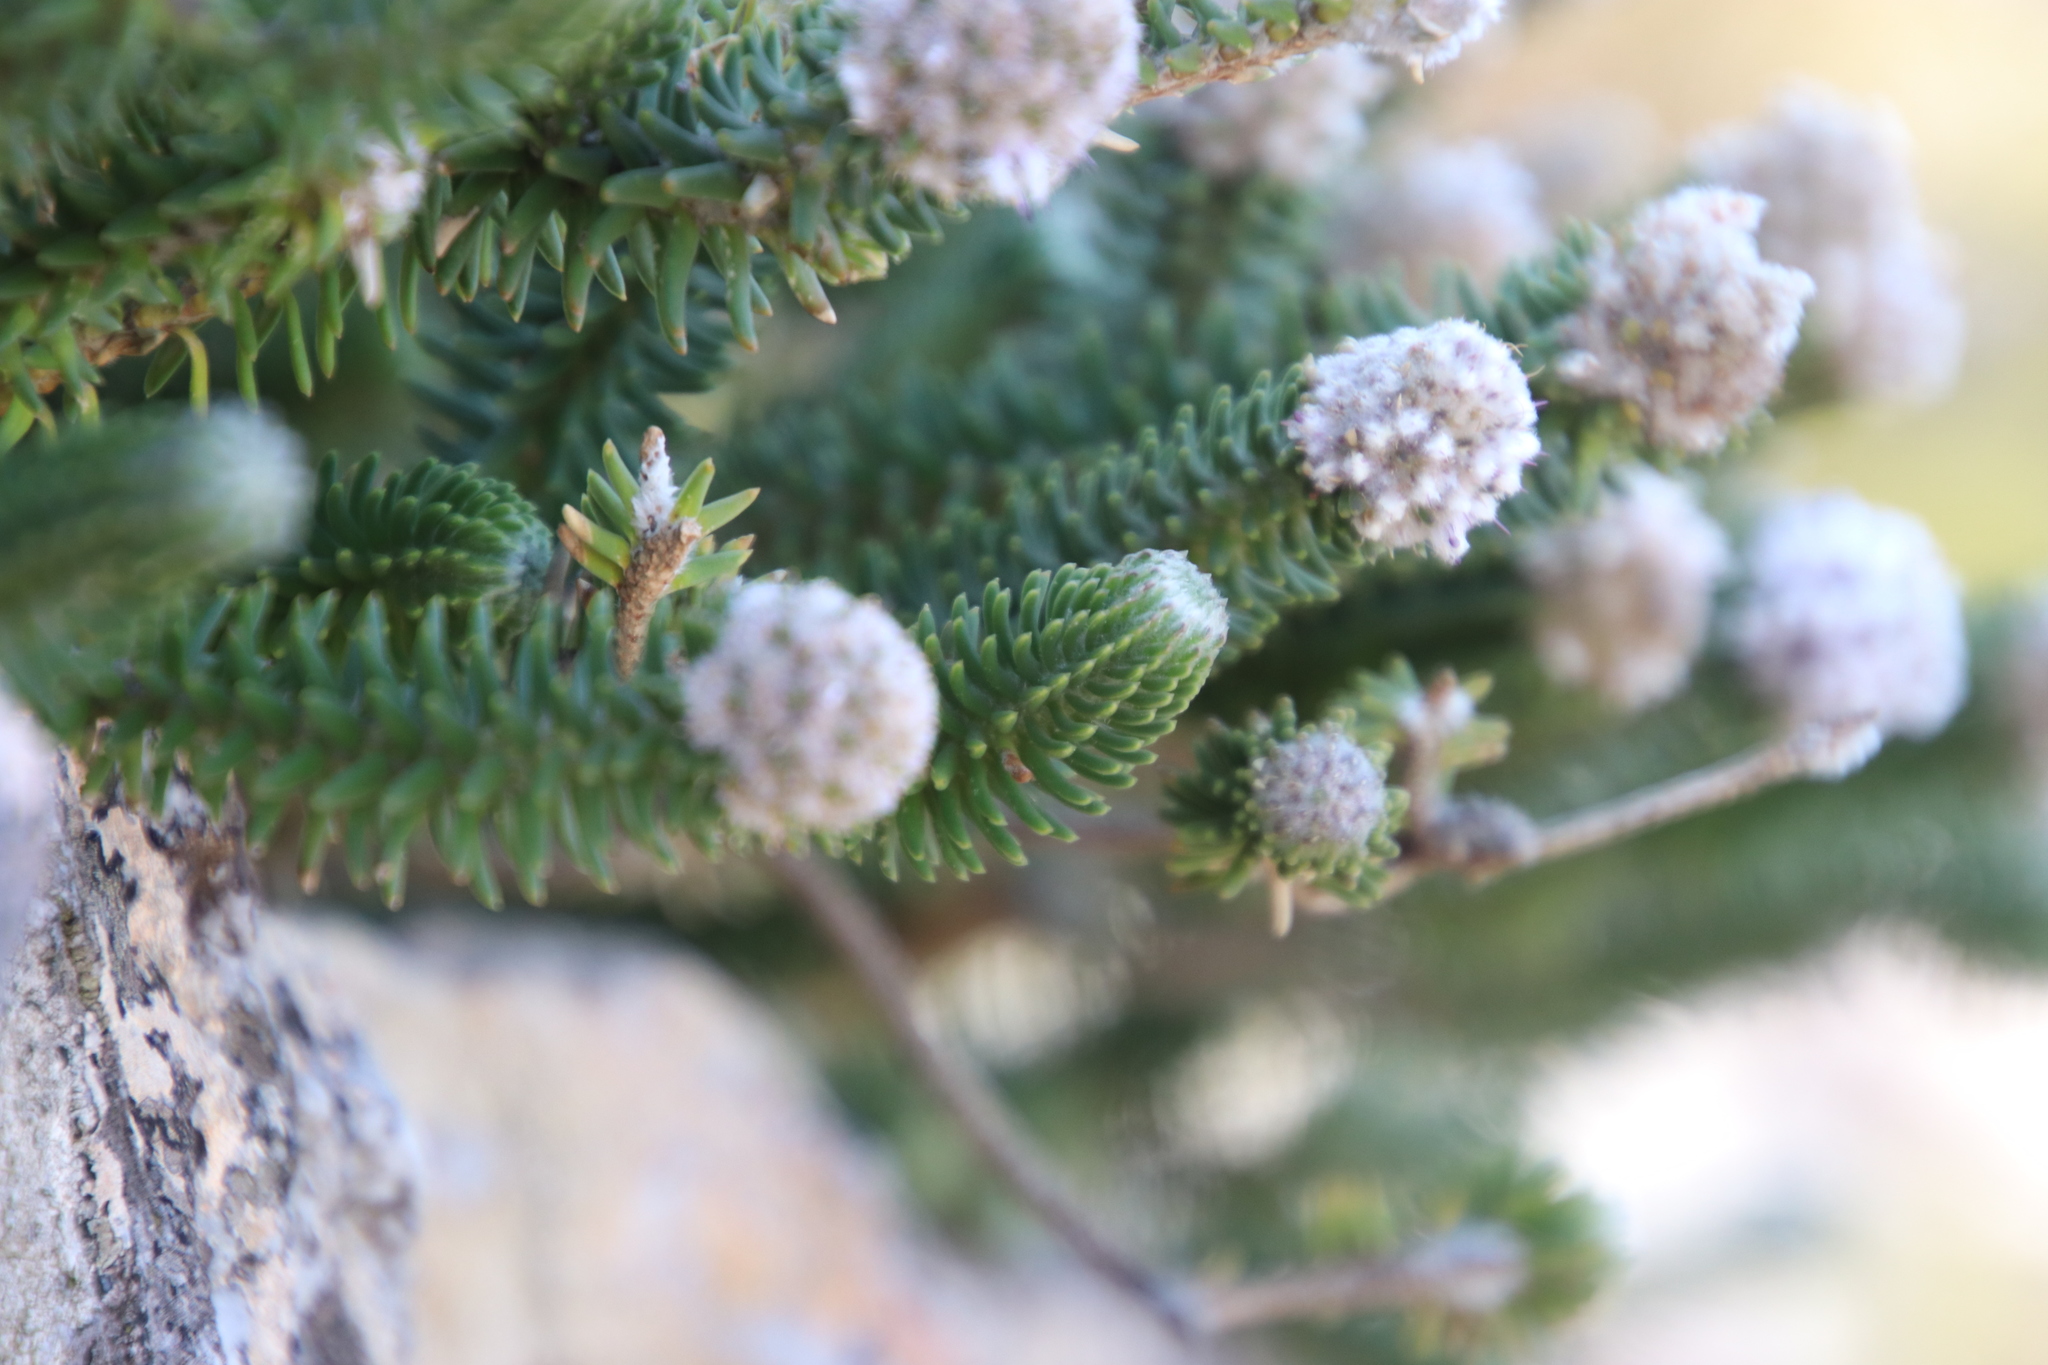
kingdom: Plantae
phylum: Tracheophyta
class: Magnoliopsida
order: Lamiales
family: Stilbaceae
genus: Kogelbergia
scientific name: Kogelbergia verticillata
